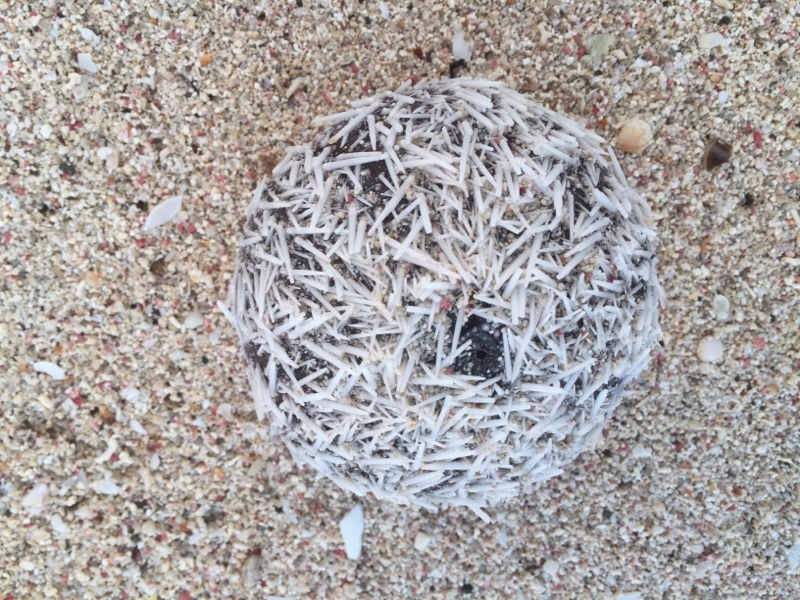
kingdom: Animalia
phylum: Echinodermata
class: Echinoidea
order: Camarodonta
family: Toxopneustidae
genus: Tripneustes
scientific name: Tripneustes ventricosus
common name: West indian sea egg
